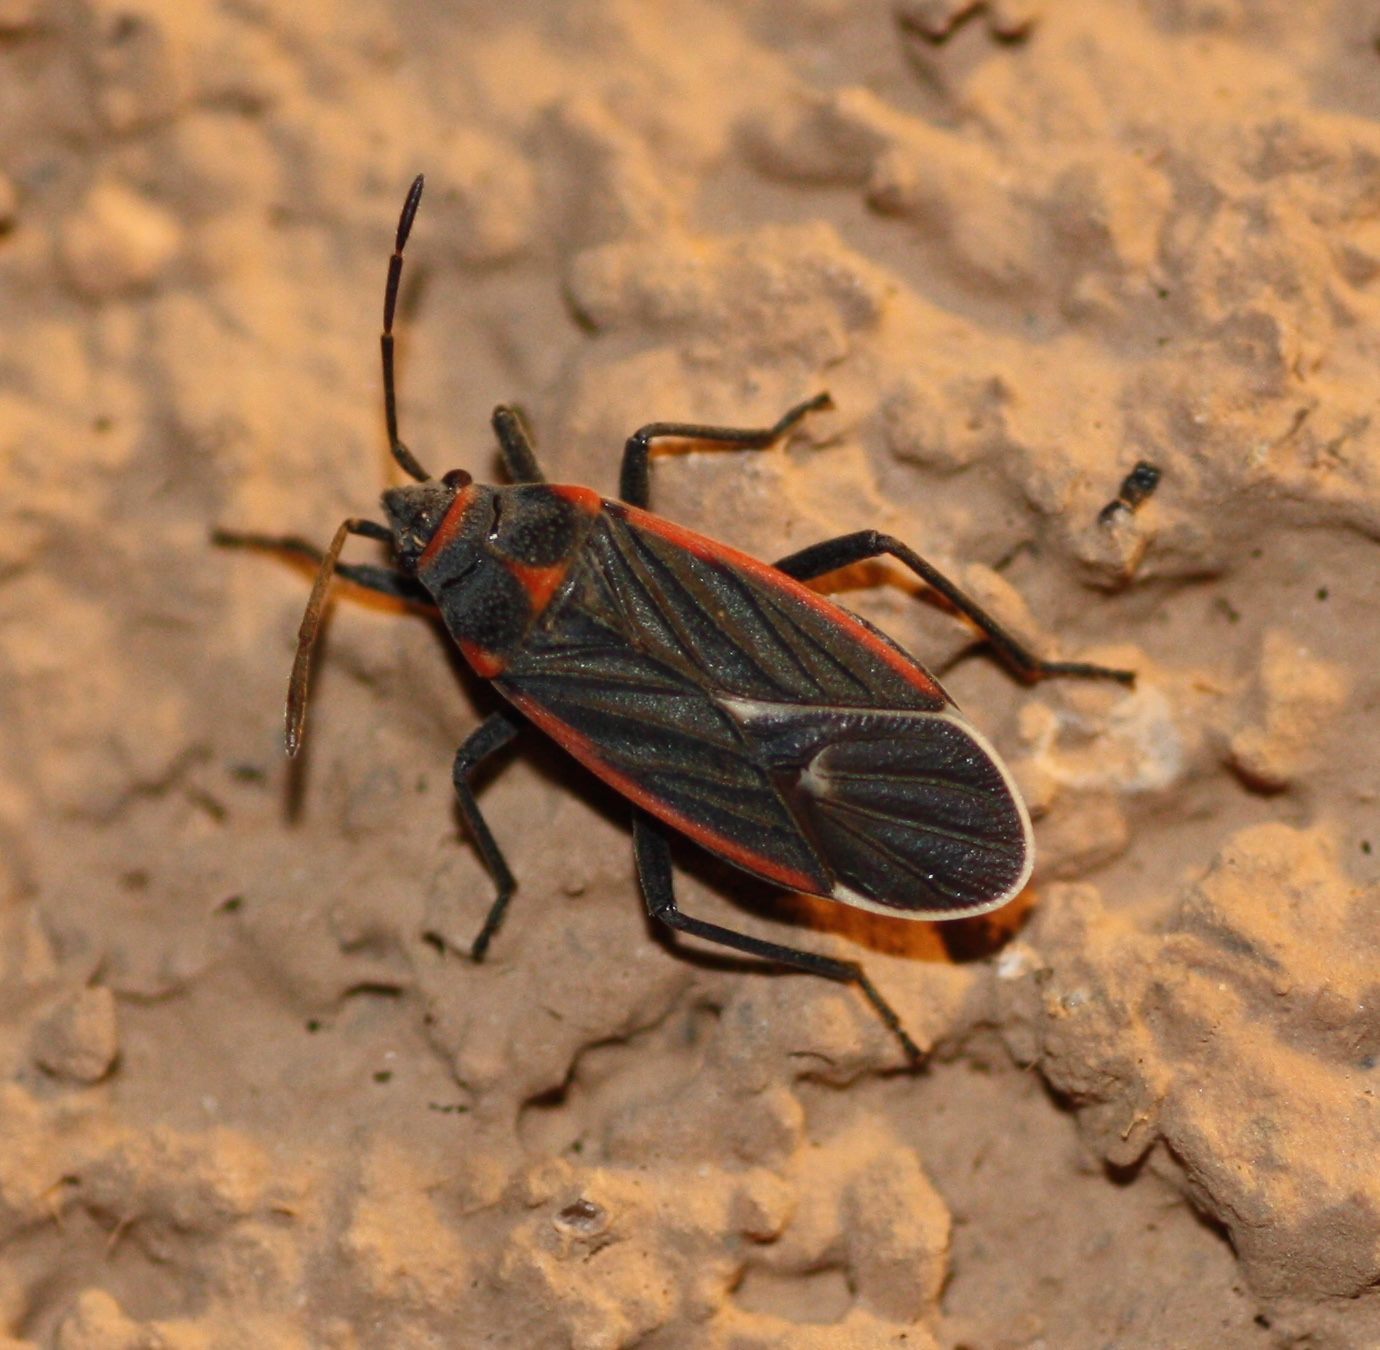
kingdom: Animalia
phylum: Arthropoda
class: Insecta
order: Hemiptera
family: Lygaeidae
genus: Melacoryphus
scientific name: Melacoryphus lateralis
